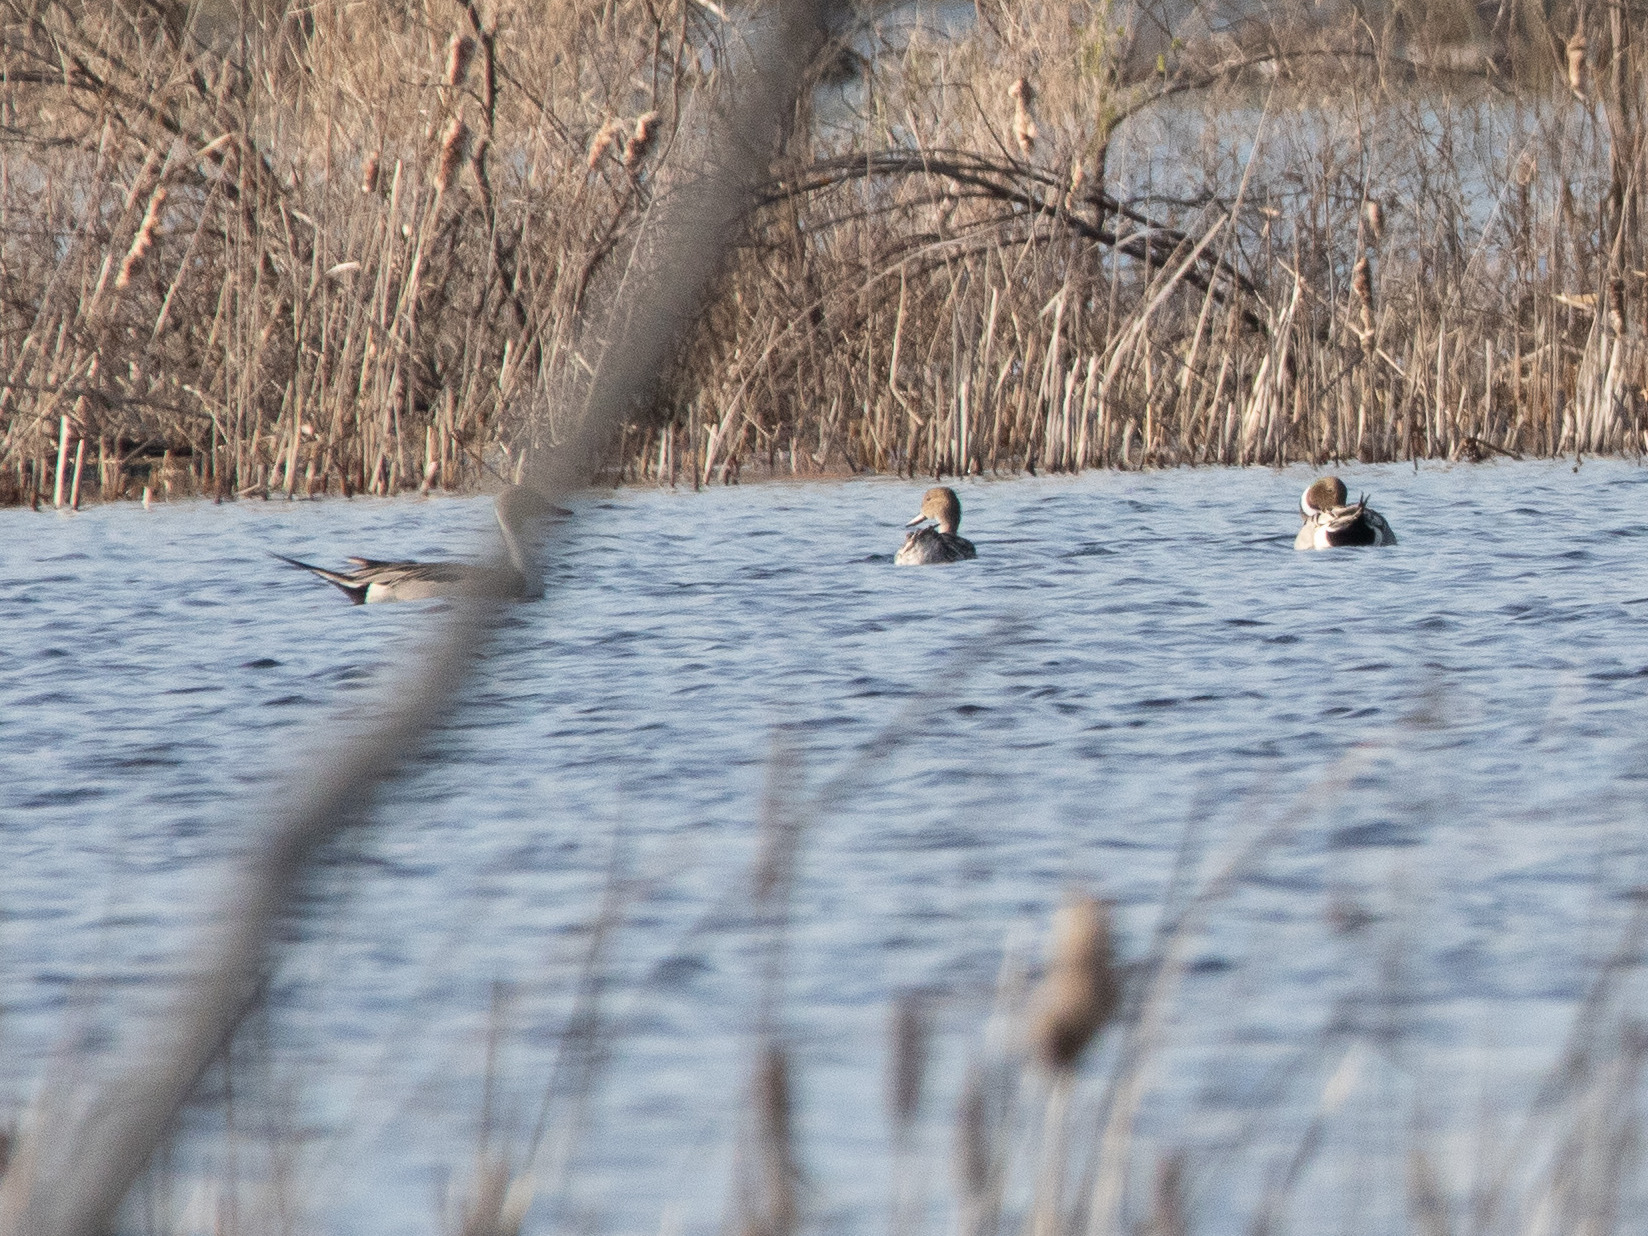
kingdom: Animalia
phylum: Chordata
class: Aves
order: Anseriformes
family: Anatidae
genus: Anas
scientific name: Anas acuta
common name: Northern pintail
